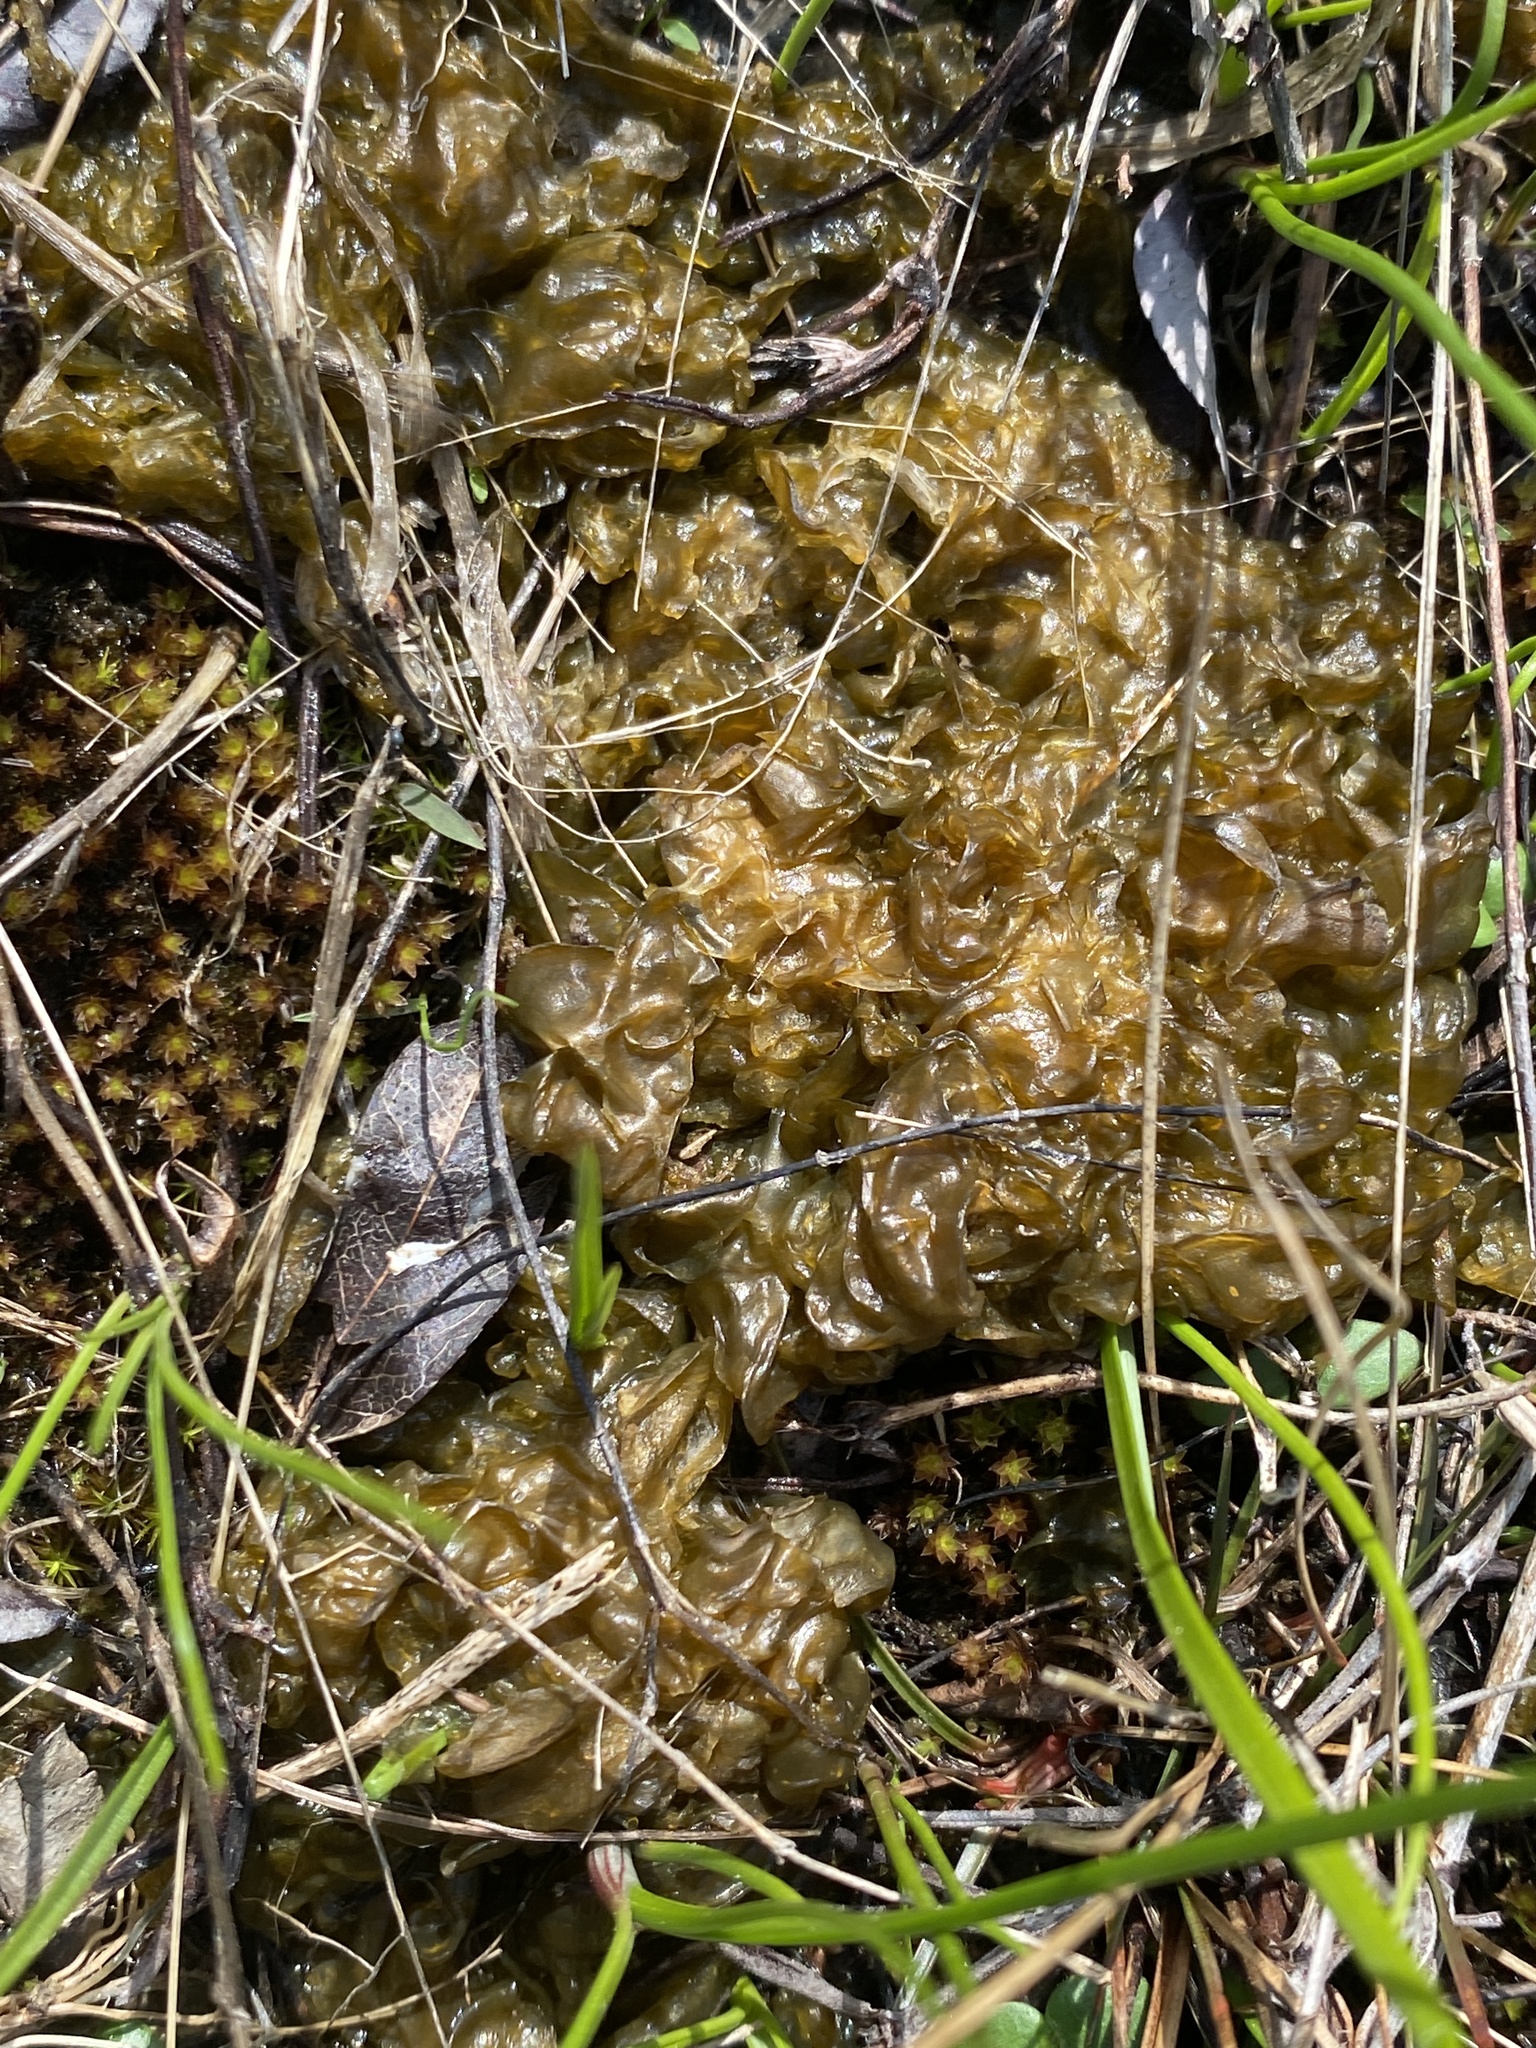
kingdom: Bacteria
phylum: Cyanobacteria
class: Cyanobacteriia
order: Cyanobacteriales
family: Nostocaceae
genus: Nostoc
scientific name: Nostoc commune
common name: Star jelly
